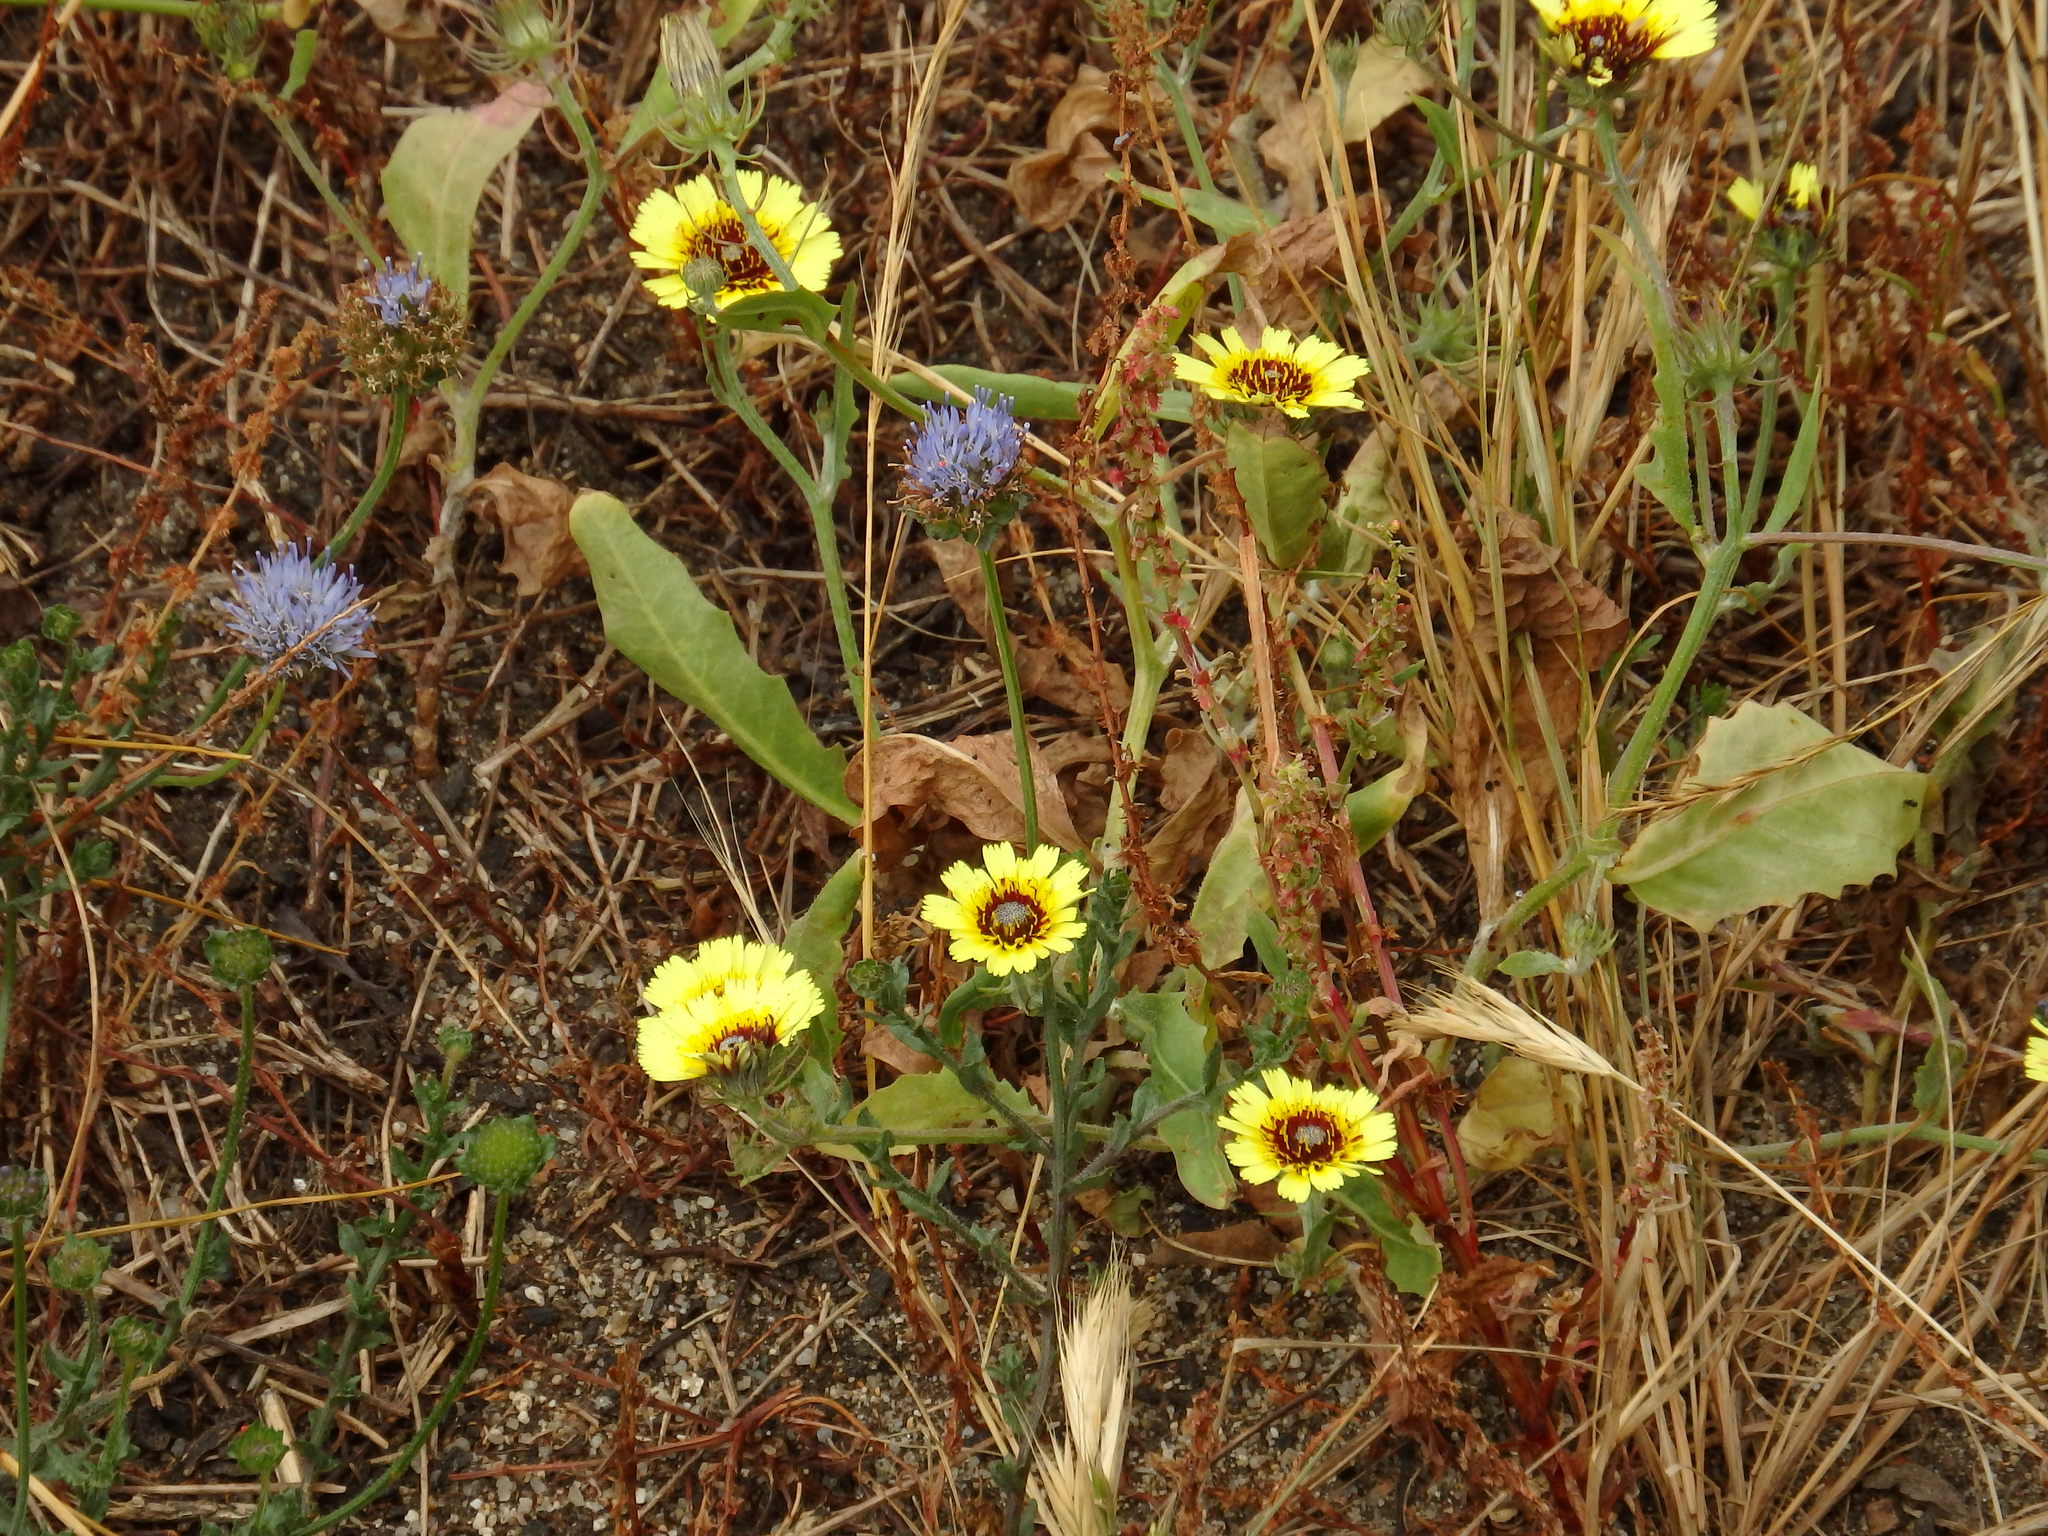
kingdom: Plantae
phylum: Tracheophyta
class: Magnoliopsida
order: Asterales
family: Asteraceae
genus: Tolpis
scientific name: Tolpis barbata
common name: Yellow hawkweed
